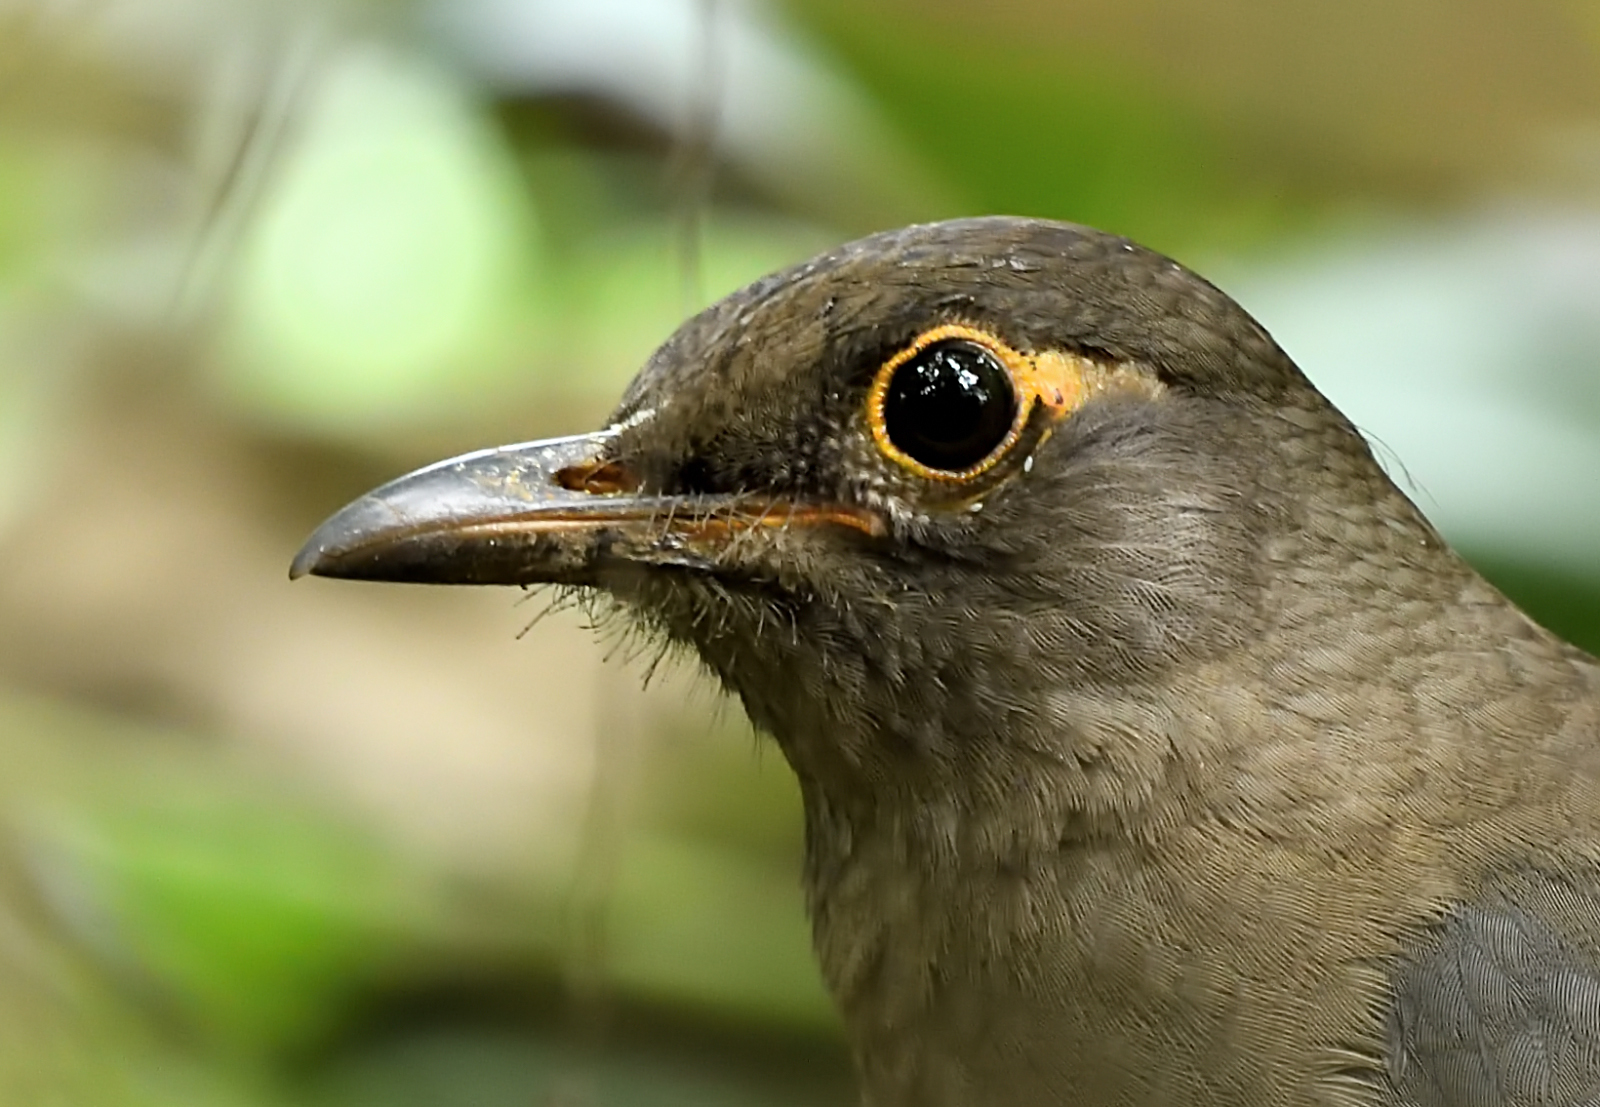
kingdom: Animalia
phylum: Chordata
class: Aves
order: Passeriformes
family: Turdidae
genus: Turdus
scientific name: Turdus simillimus
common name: Indian blackbird
